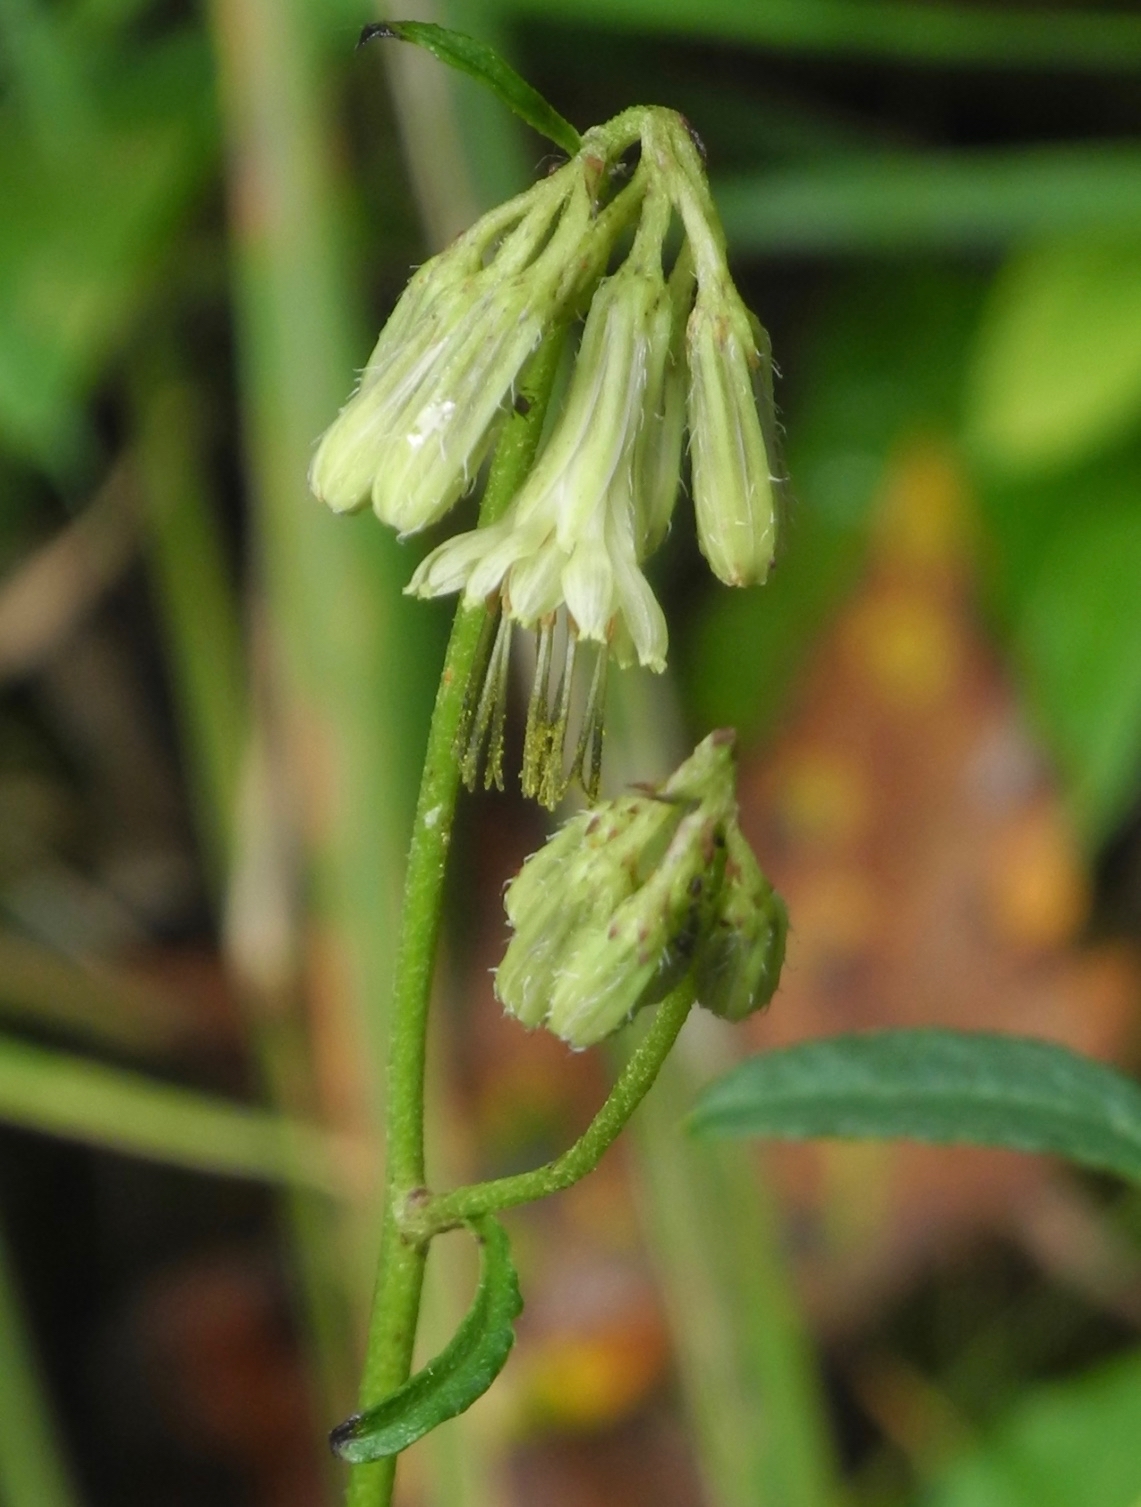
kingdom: Plantae
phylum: Tracheophyta
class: Magnoliopsida
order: Asterales
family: Asteraceae
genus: Nabalus
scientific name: Nabalus serpentarius
